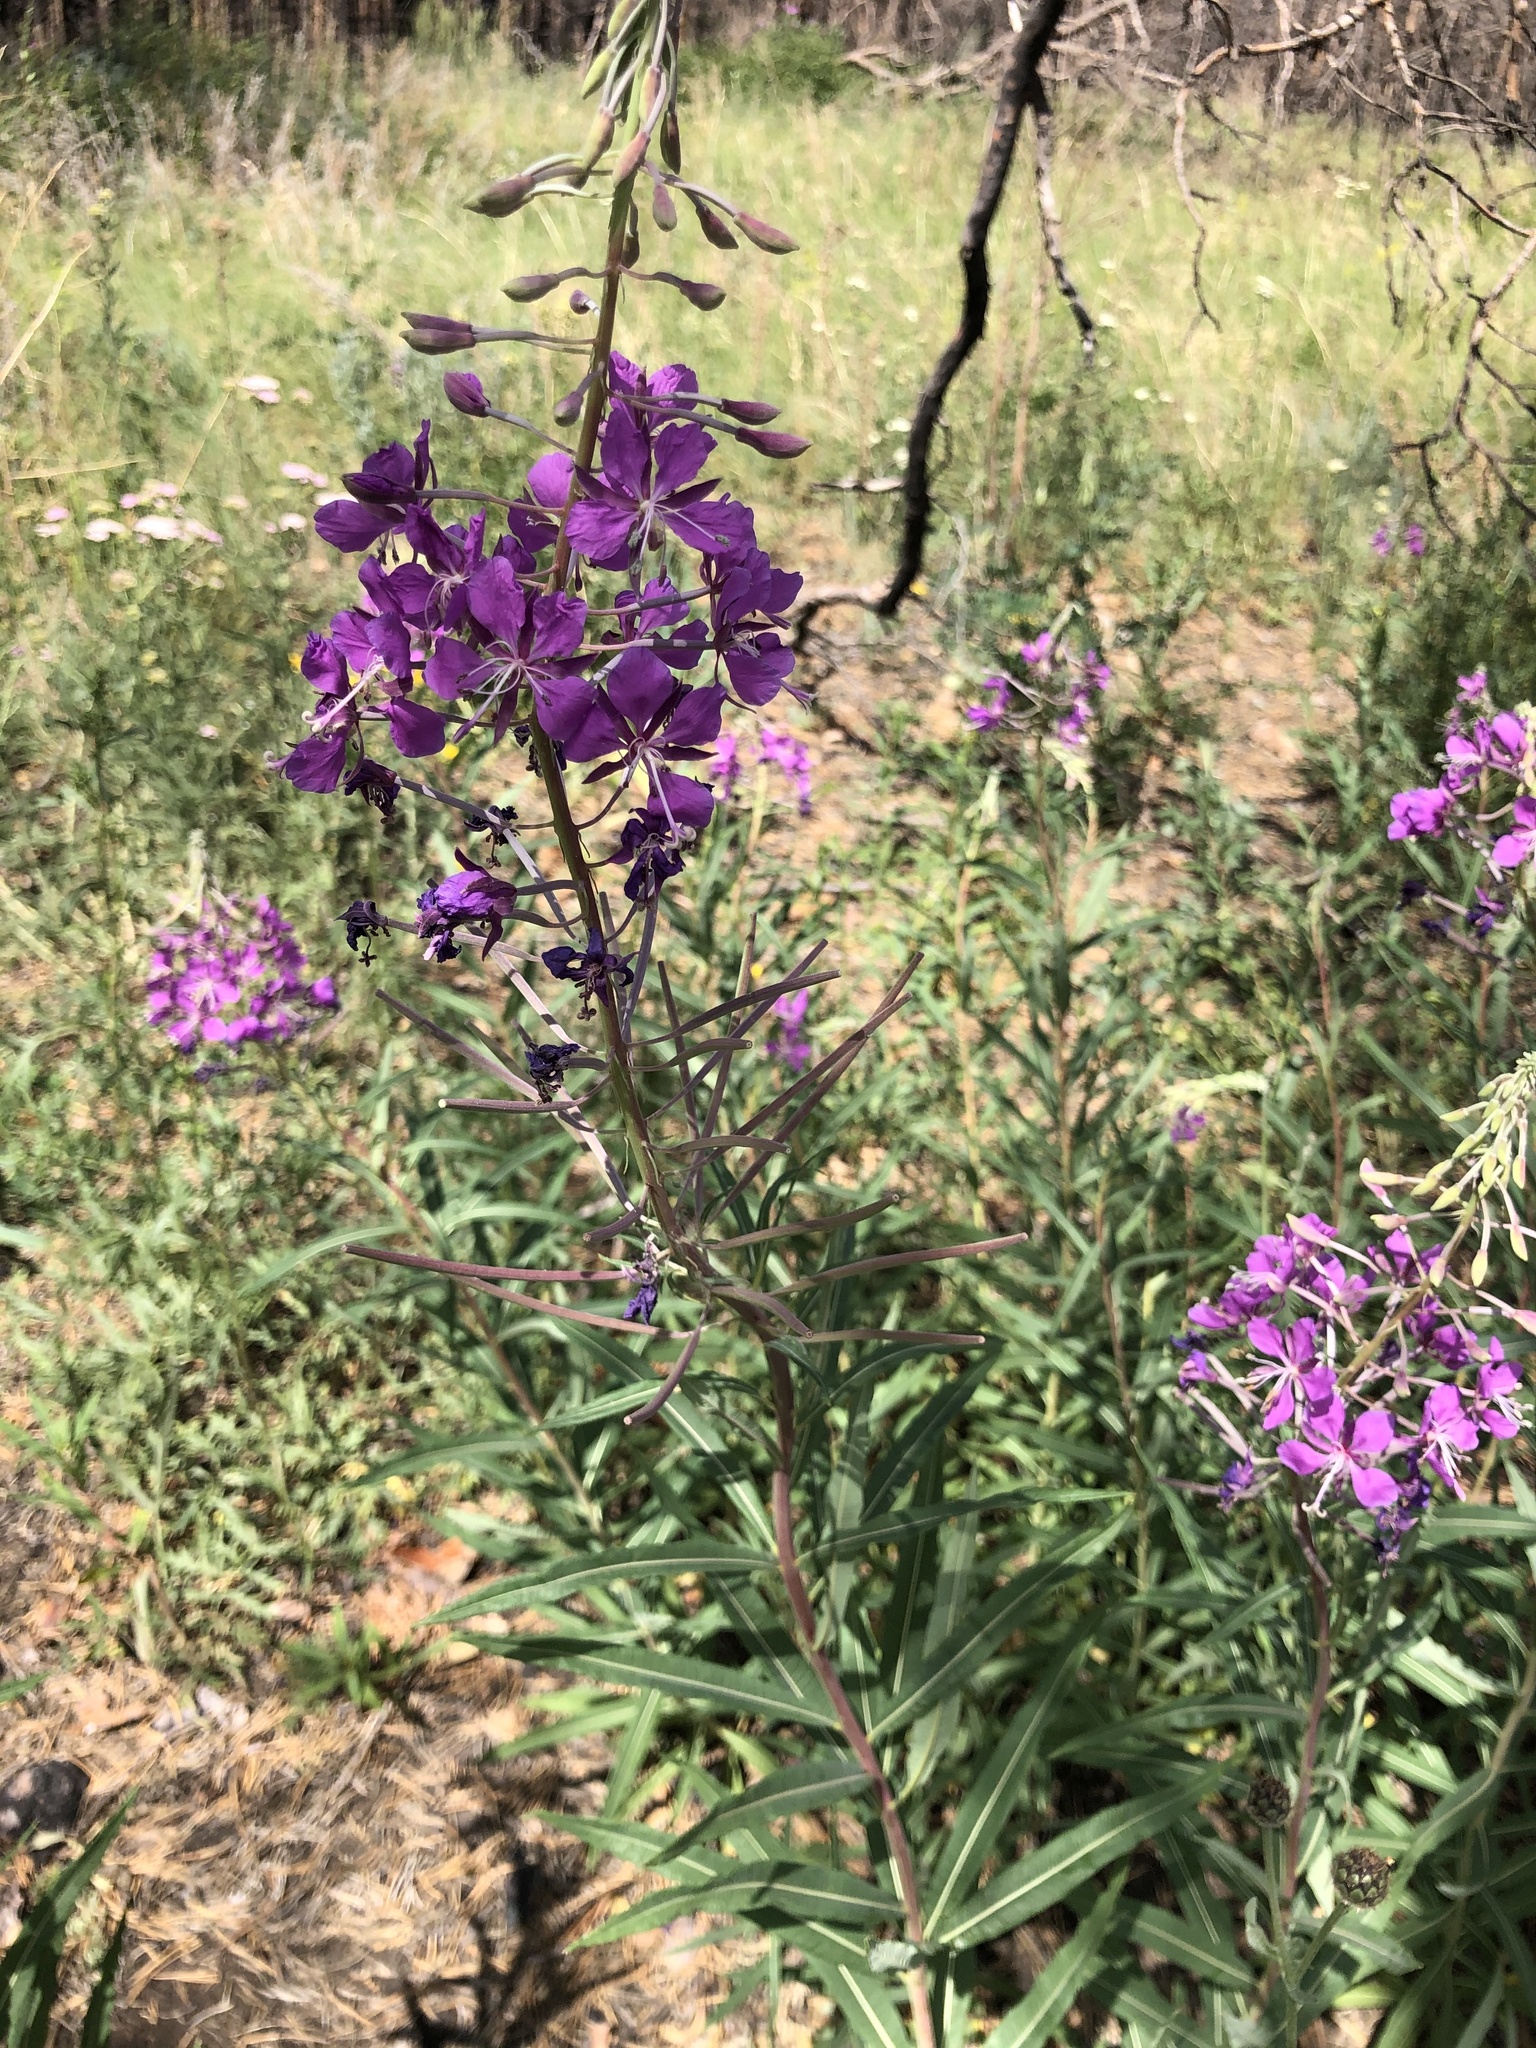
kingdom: Plantae
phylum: Tracheophyta
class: Magnoliopsida
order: Myrtales
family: Onagraceae
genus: Chamaenerion
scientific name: Chamaenerion angustifolium
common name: Fireweed
